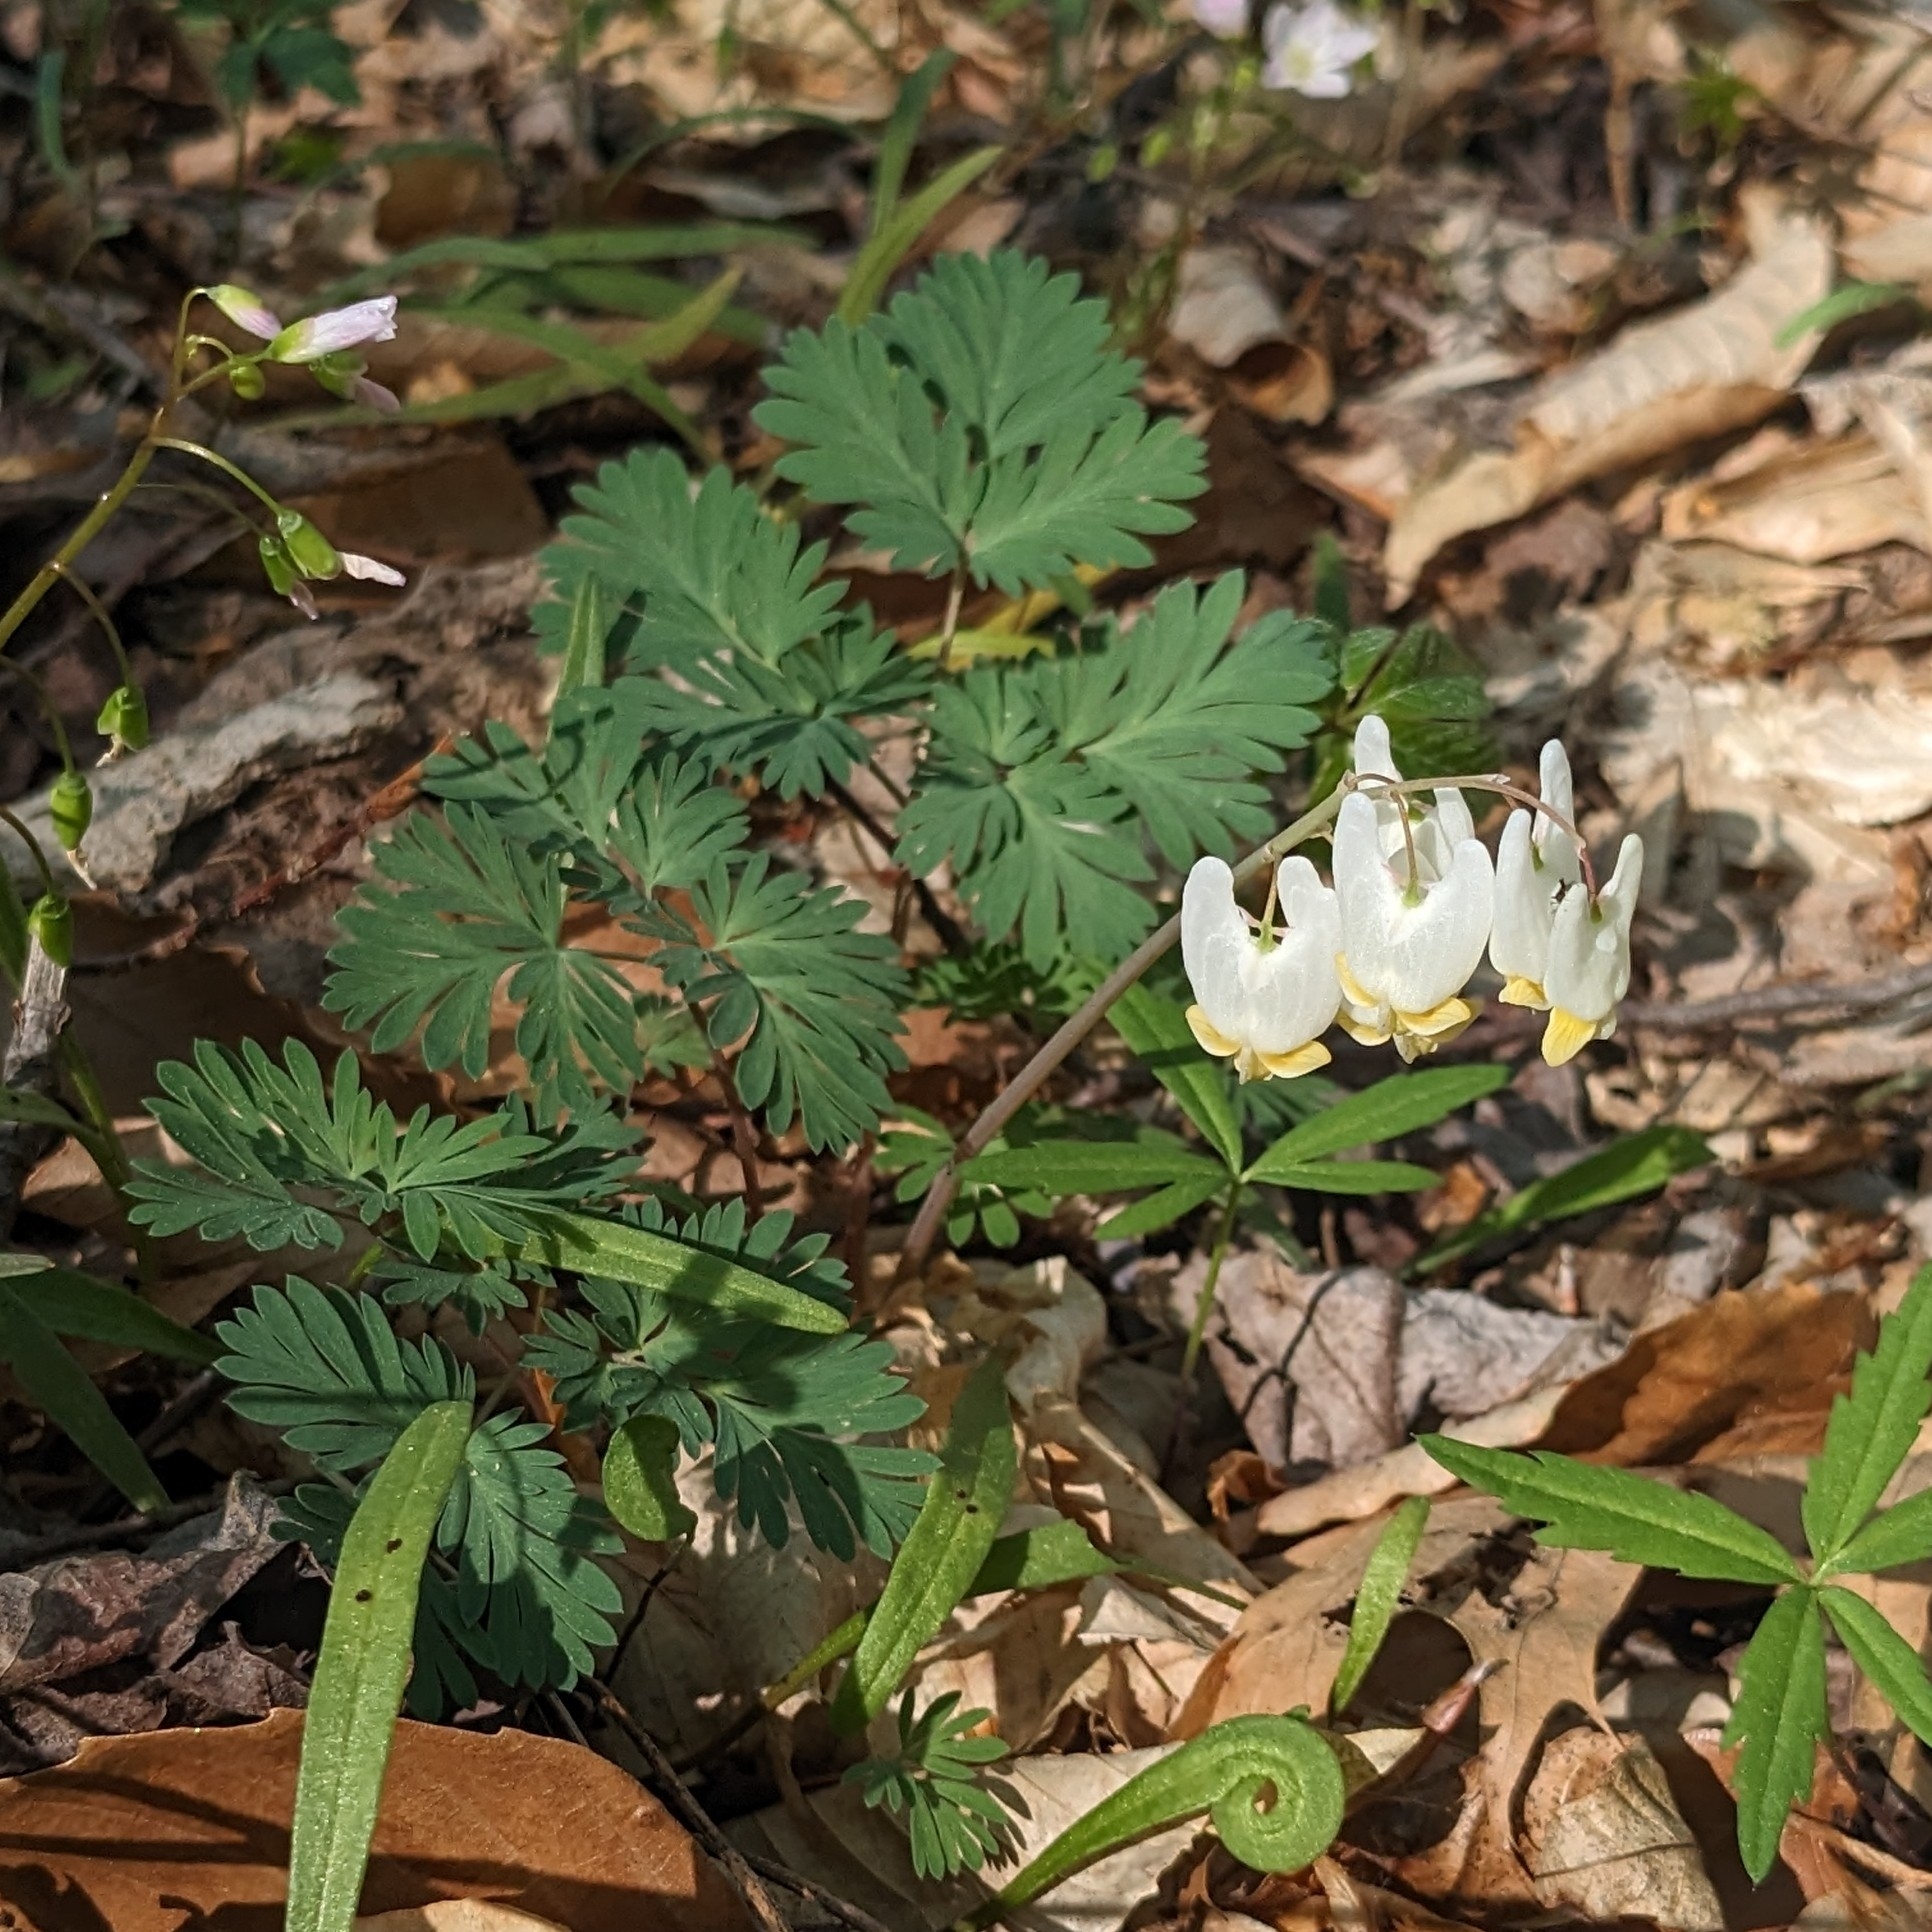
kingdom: Plantae
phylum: Tracheophyta
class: Magnoliopsida
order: Ranunculales
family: Papaveraceae
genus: Dicentra
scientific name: Dicentra cucullaria
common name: Dutchman's breeches
